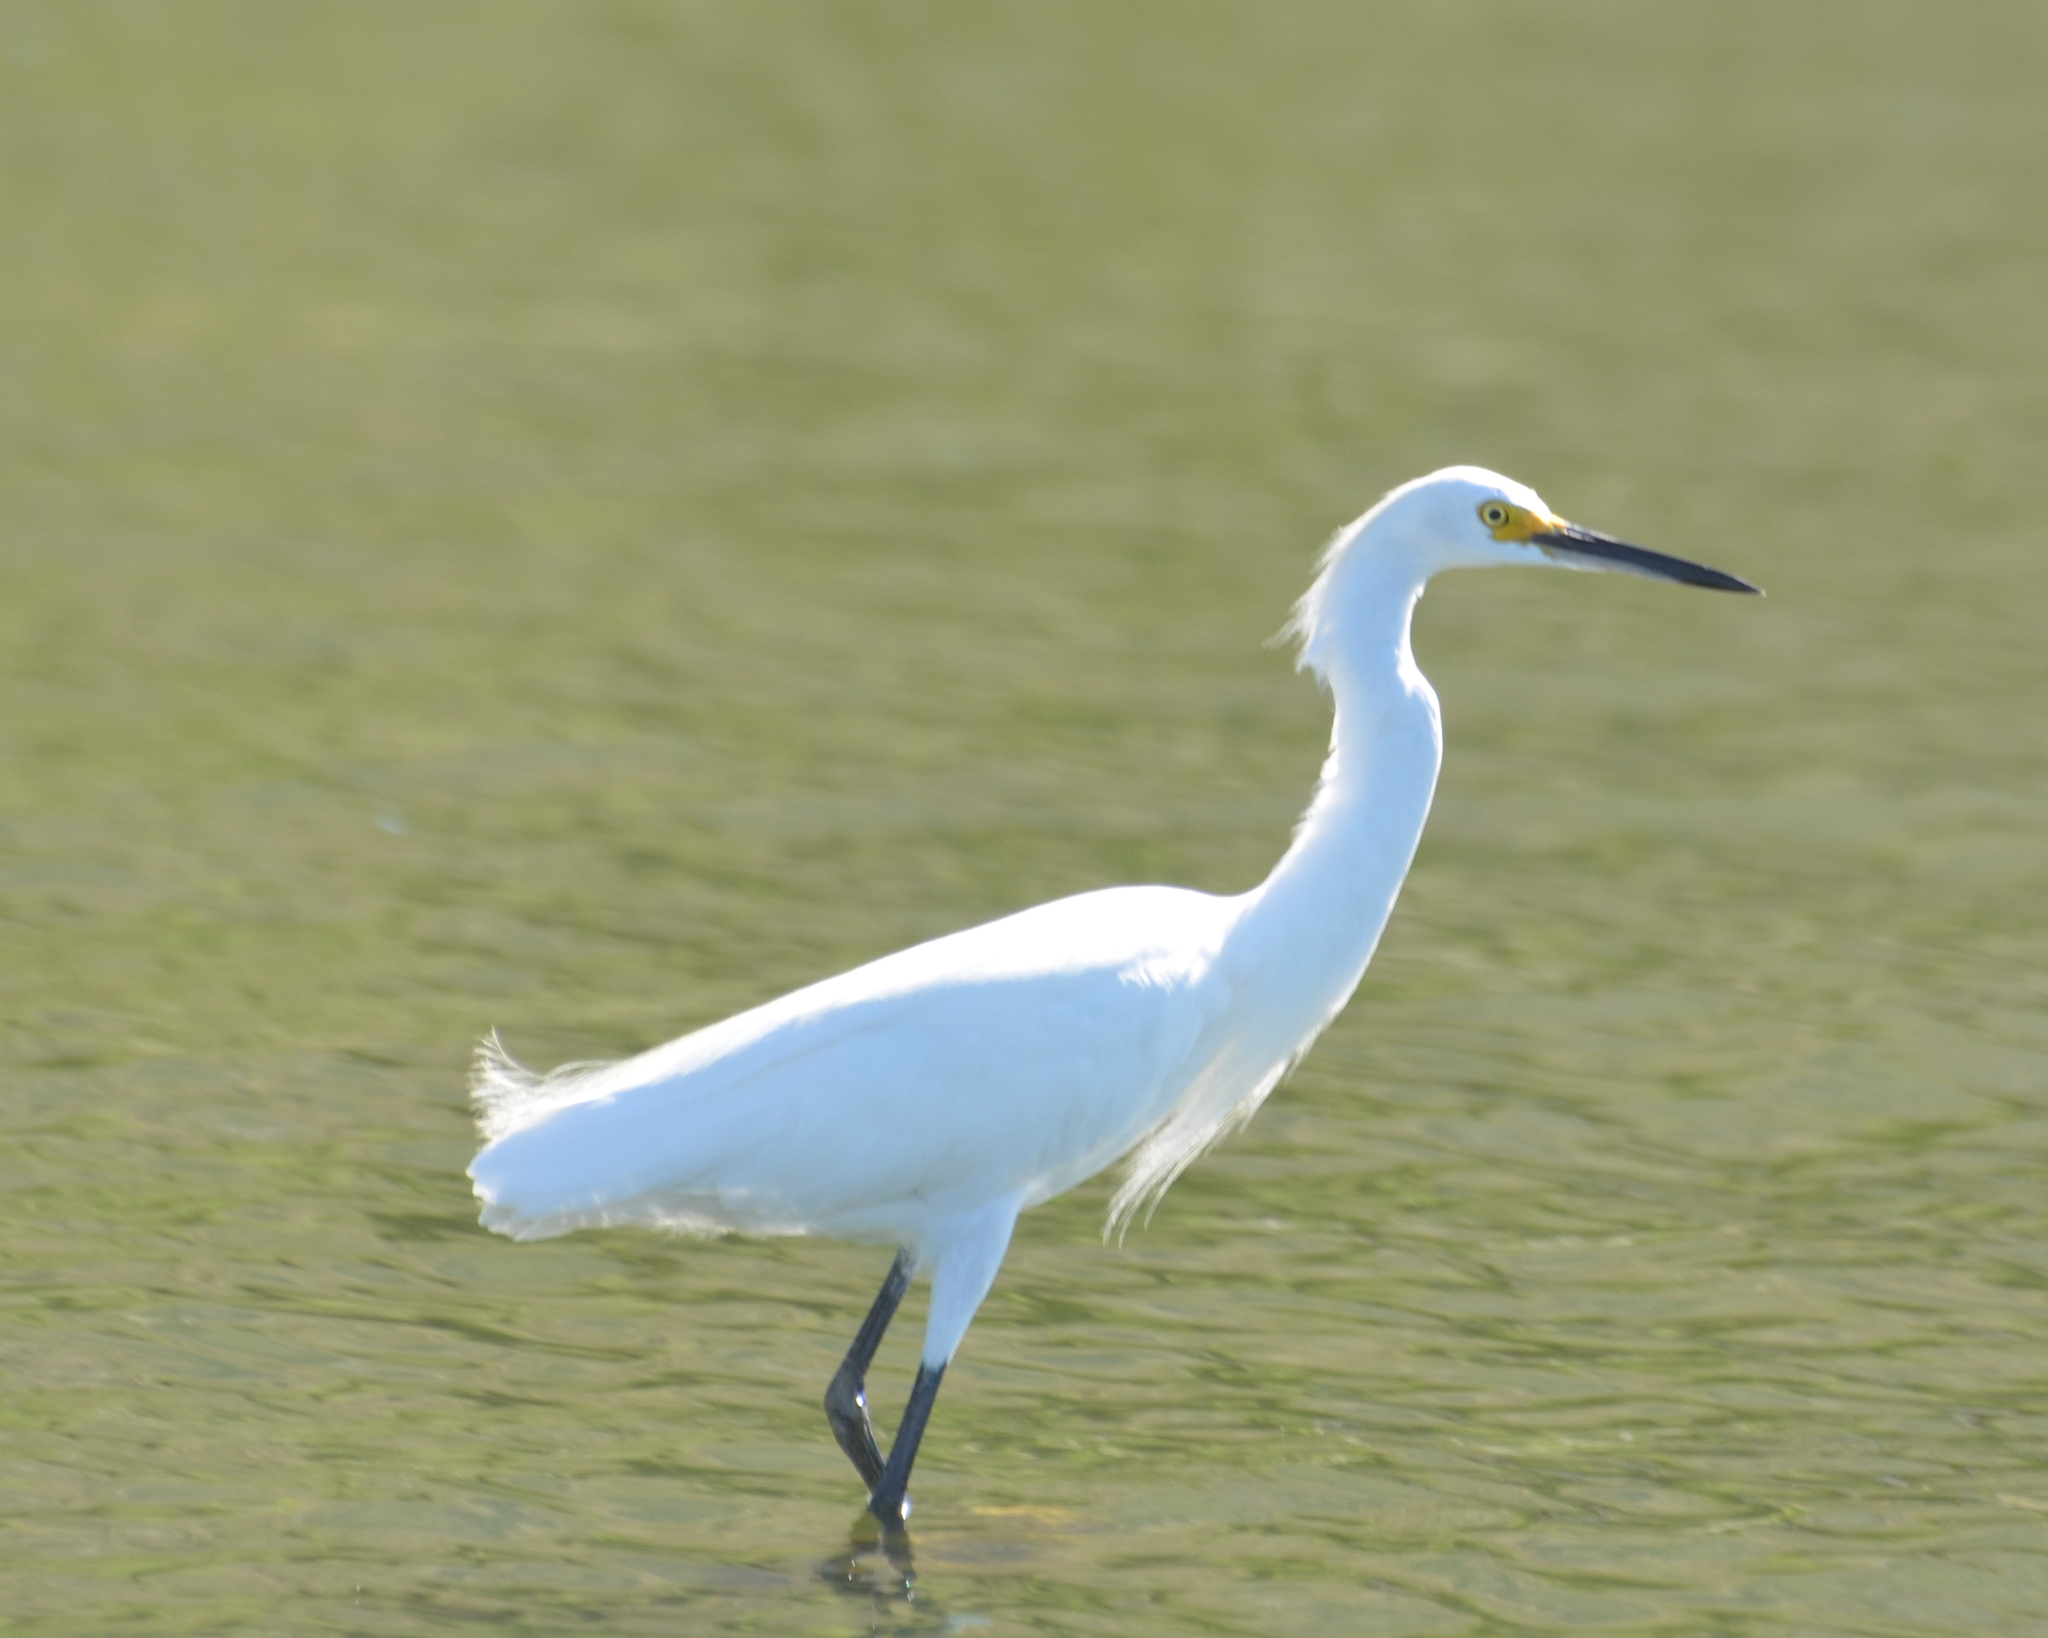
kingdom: Animalia
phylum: Chordata
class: Aves
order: Pelecaniformes
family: Ardeidae
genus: Egretta
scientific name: Egretta thula
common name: Snowy egret
